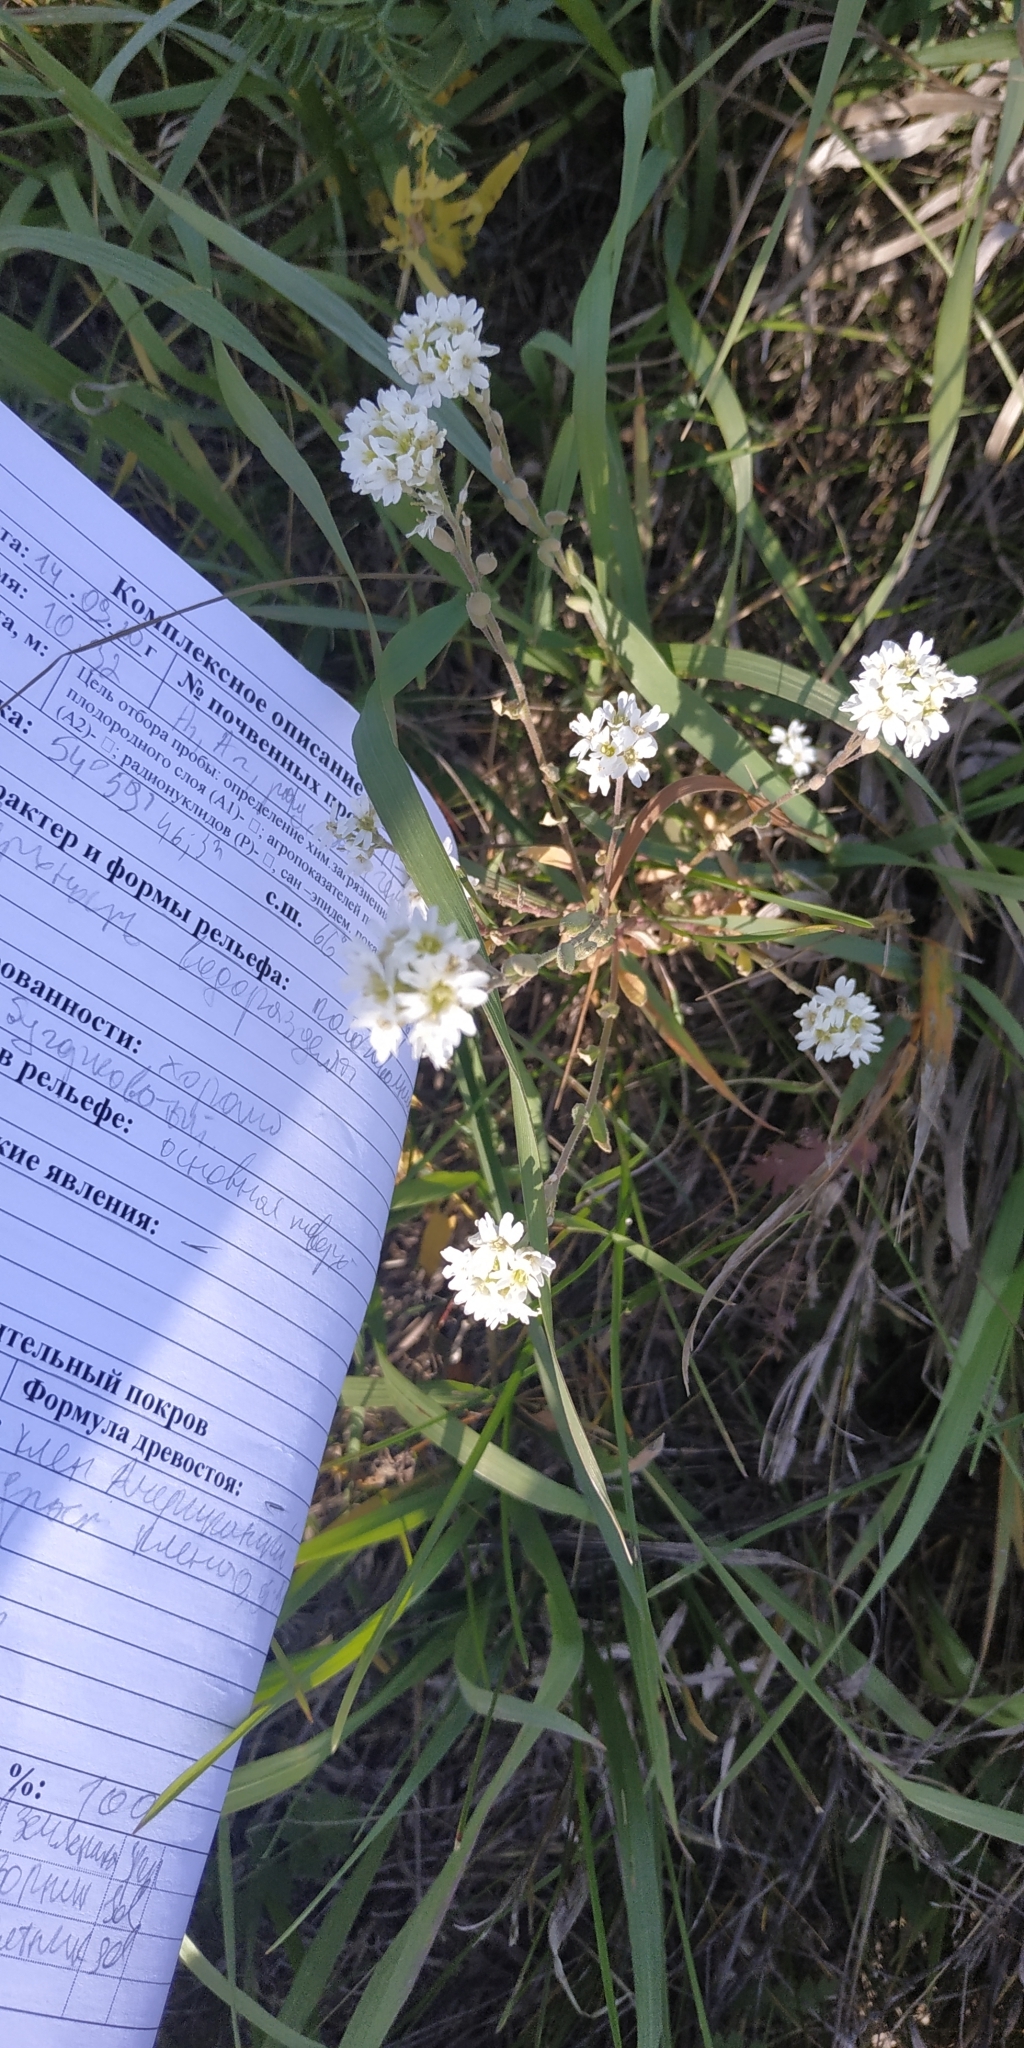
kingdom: Plantae
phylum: Tracheophyta
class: Magnoliopsida
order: Brassicales
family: Brassicaceae
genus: Berteroa
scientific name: Berteroa incana
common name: Hoary alison
